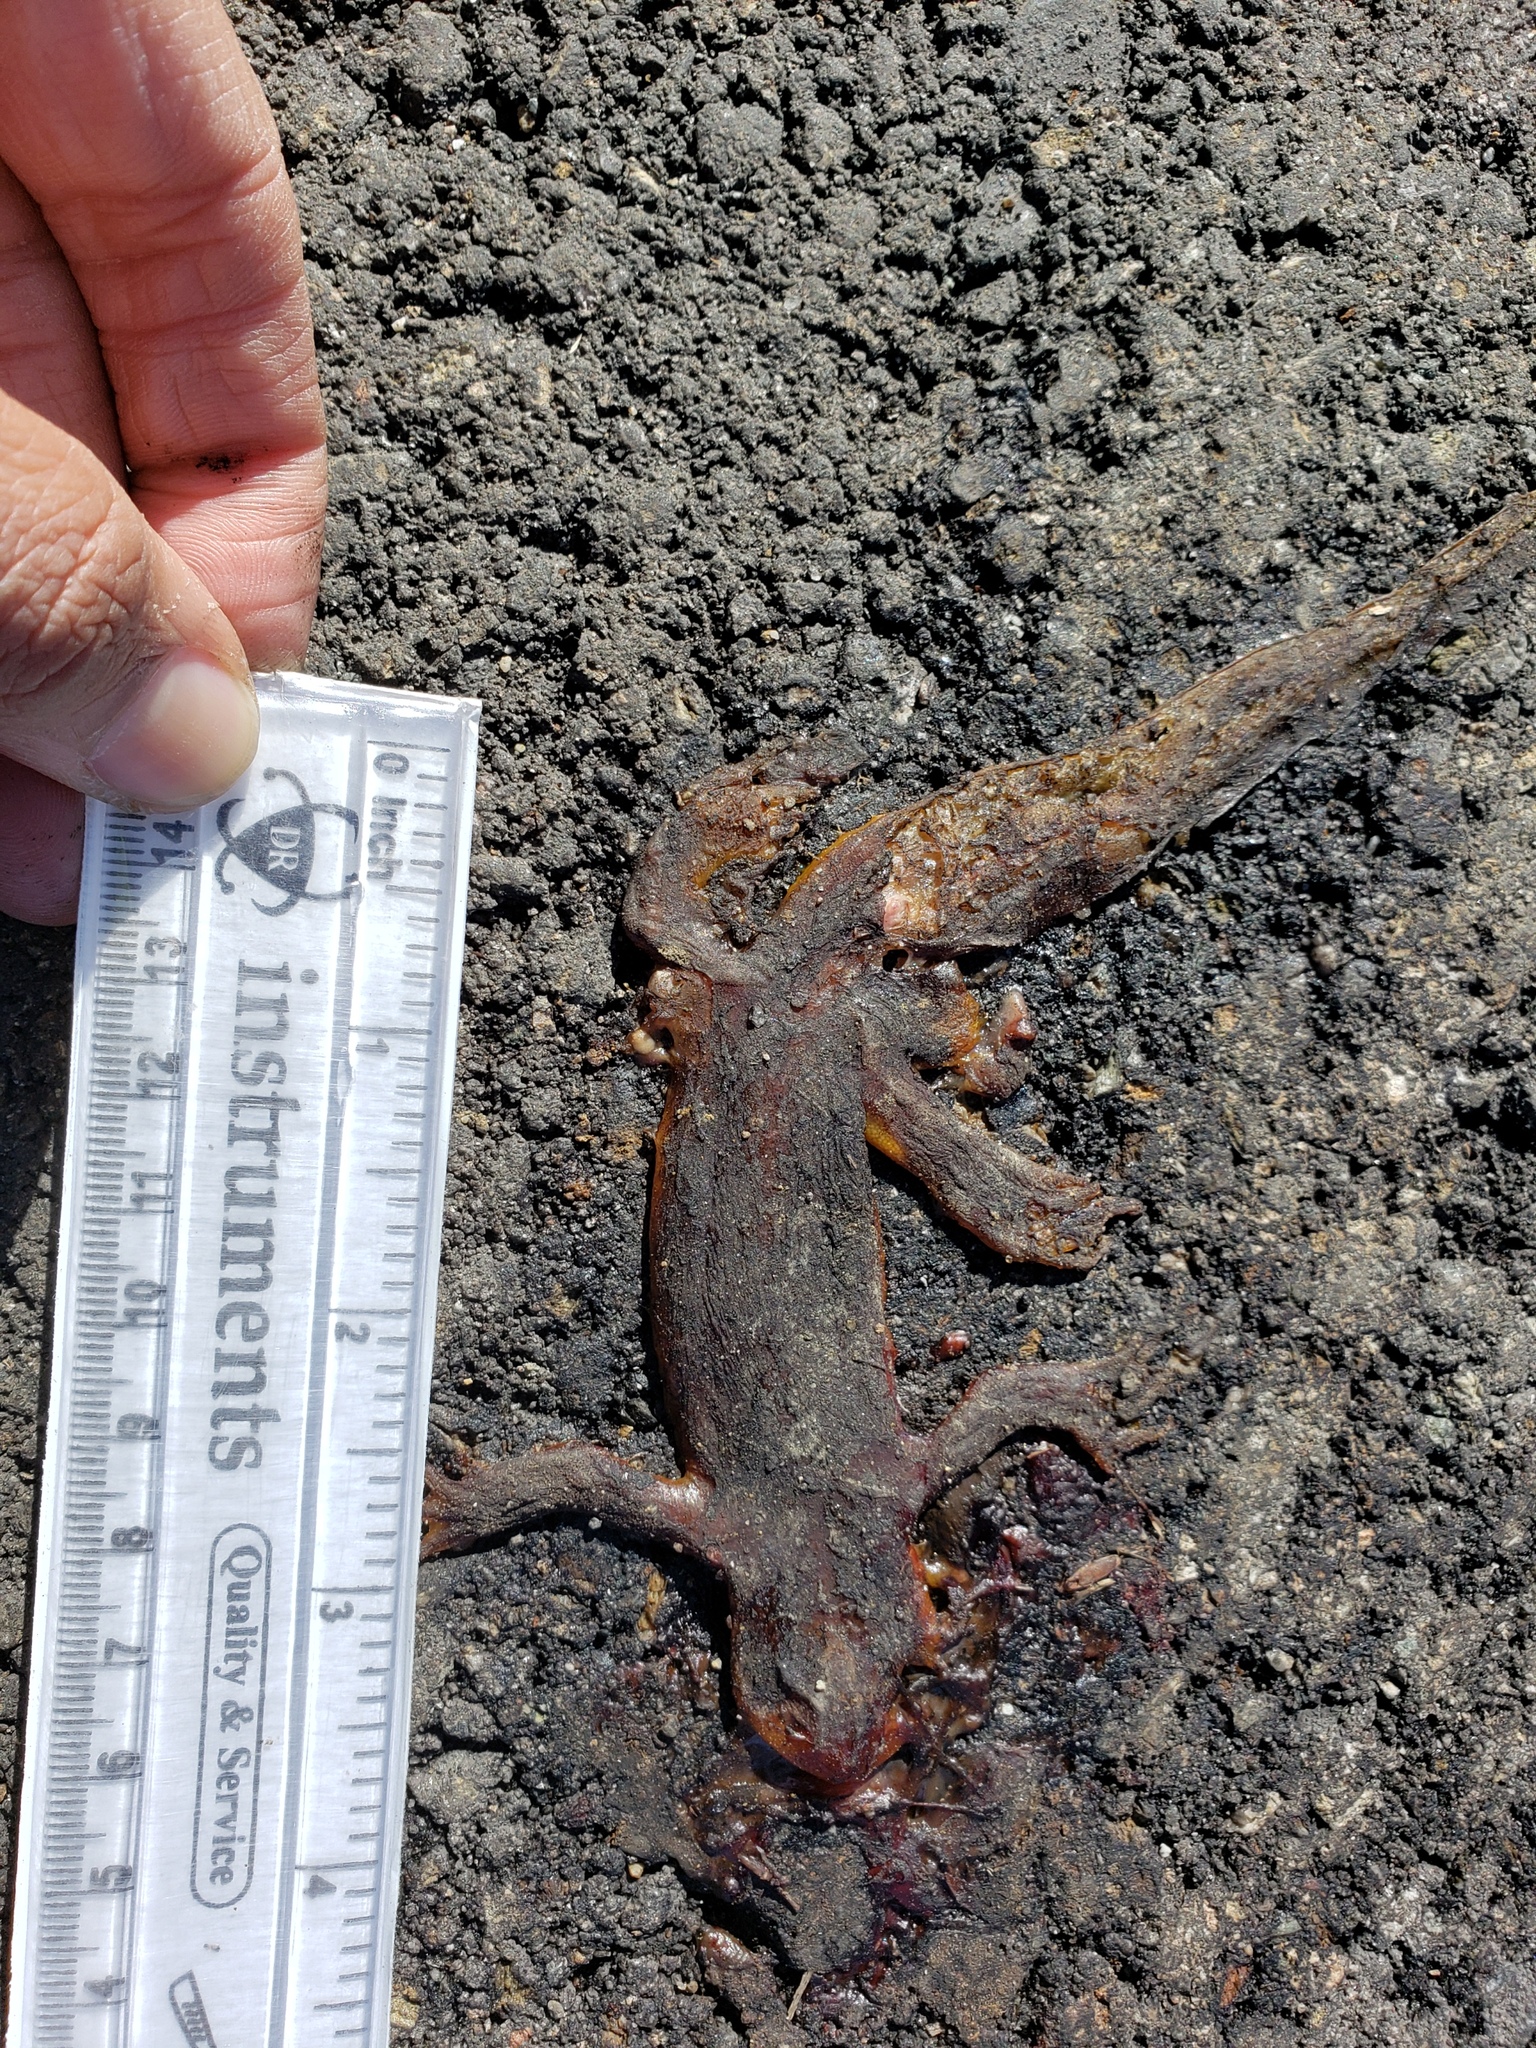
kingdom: Animalia
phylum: Chordata
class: Amphibia
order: Caudata
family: Salamandridae
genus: Taricha
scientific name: Taricha
